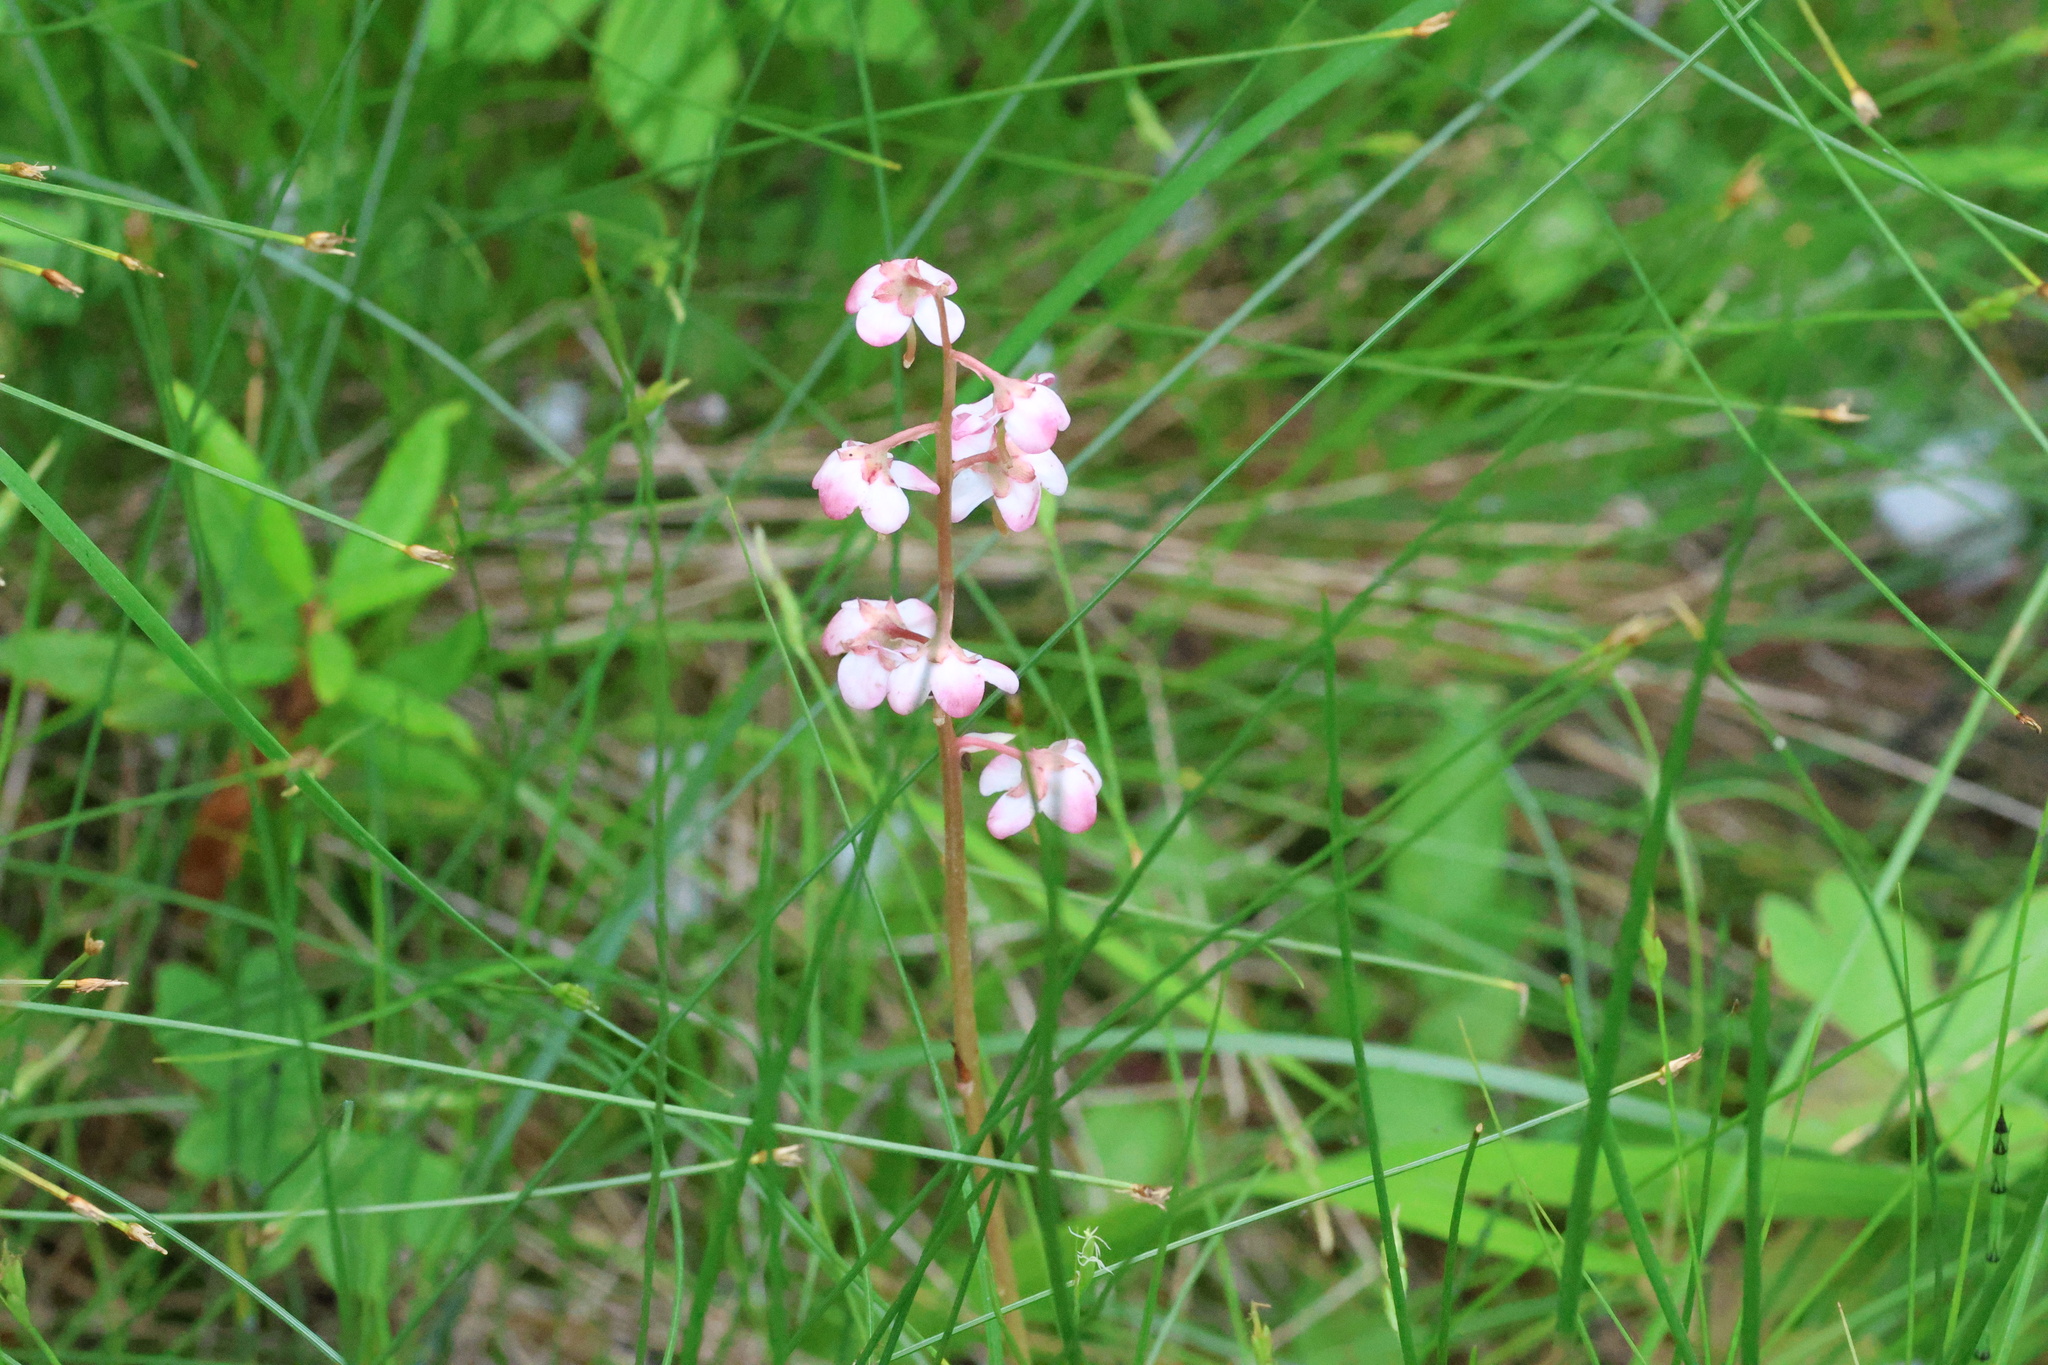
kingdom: Plantae
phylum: Tracheophyta
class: Magnoliopsida
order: Ericales
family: Ericaceae
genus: Pyrola
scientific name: Pyrola asarifolia
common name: Bog wintergreen
